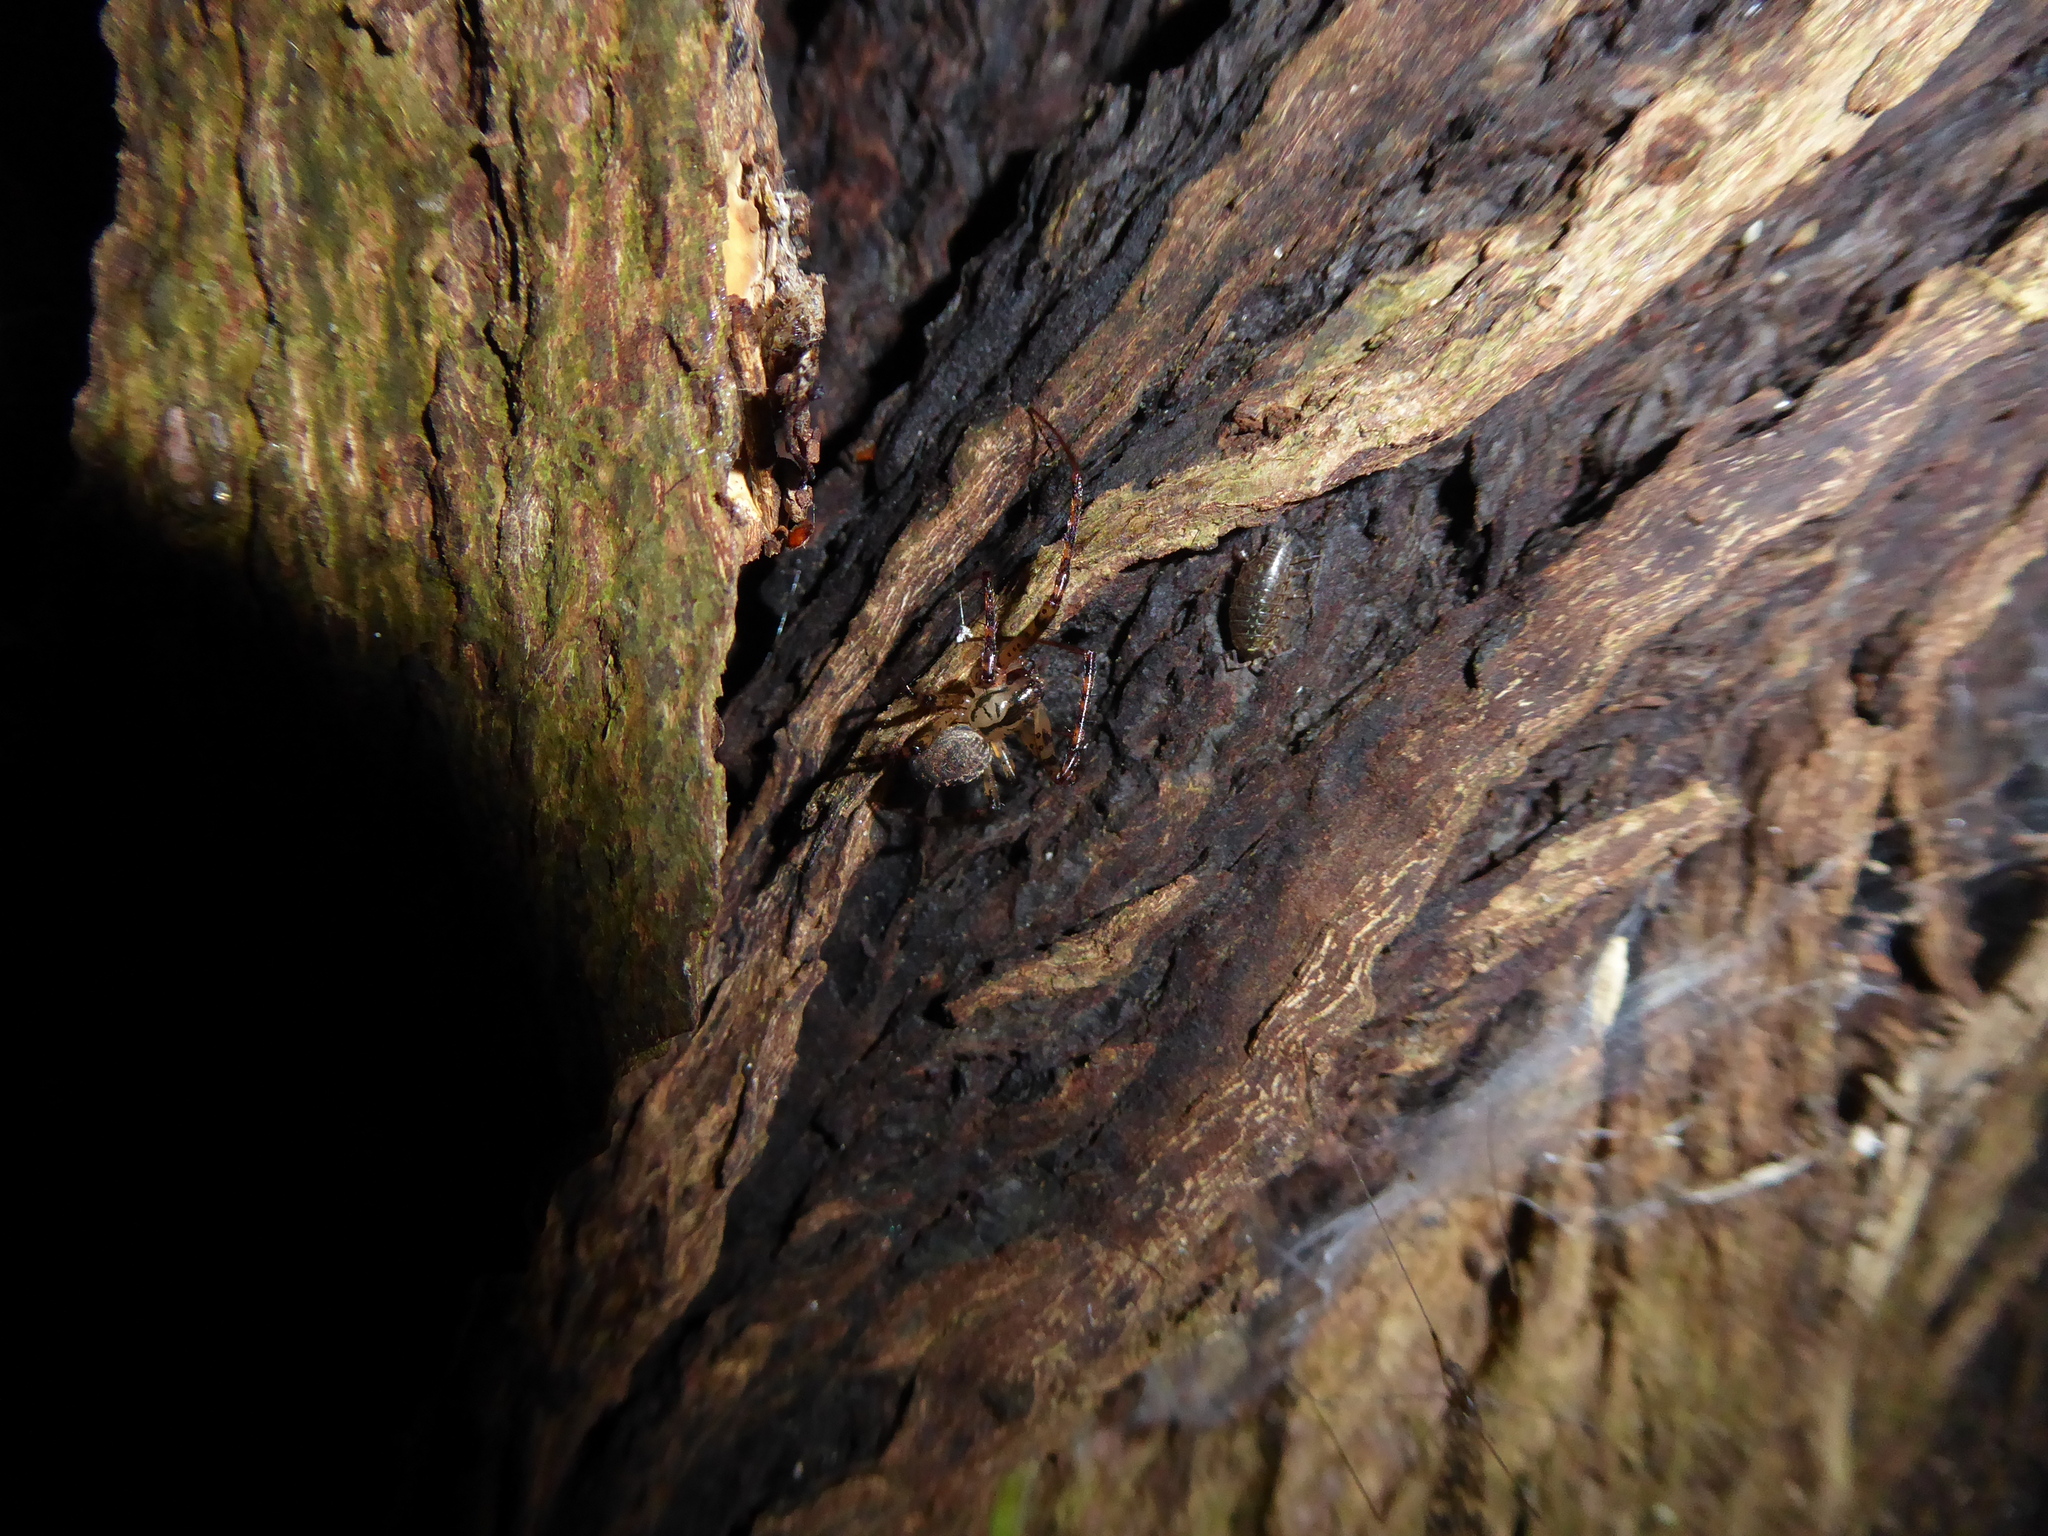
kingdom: Animalia
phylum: Arthropoda
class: Arachnida
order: Araneae
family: Tetragnathidae
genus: Metellina
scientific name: Metellina merianae
